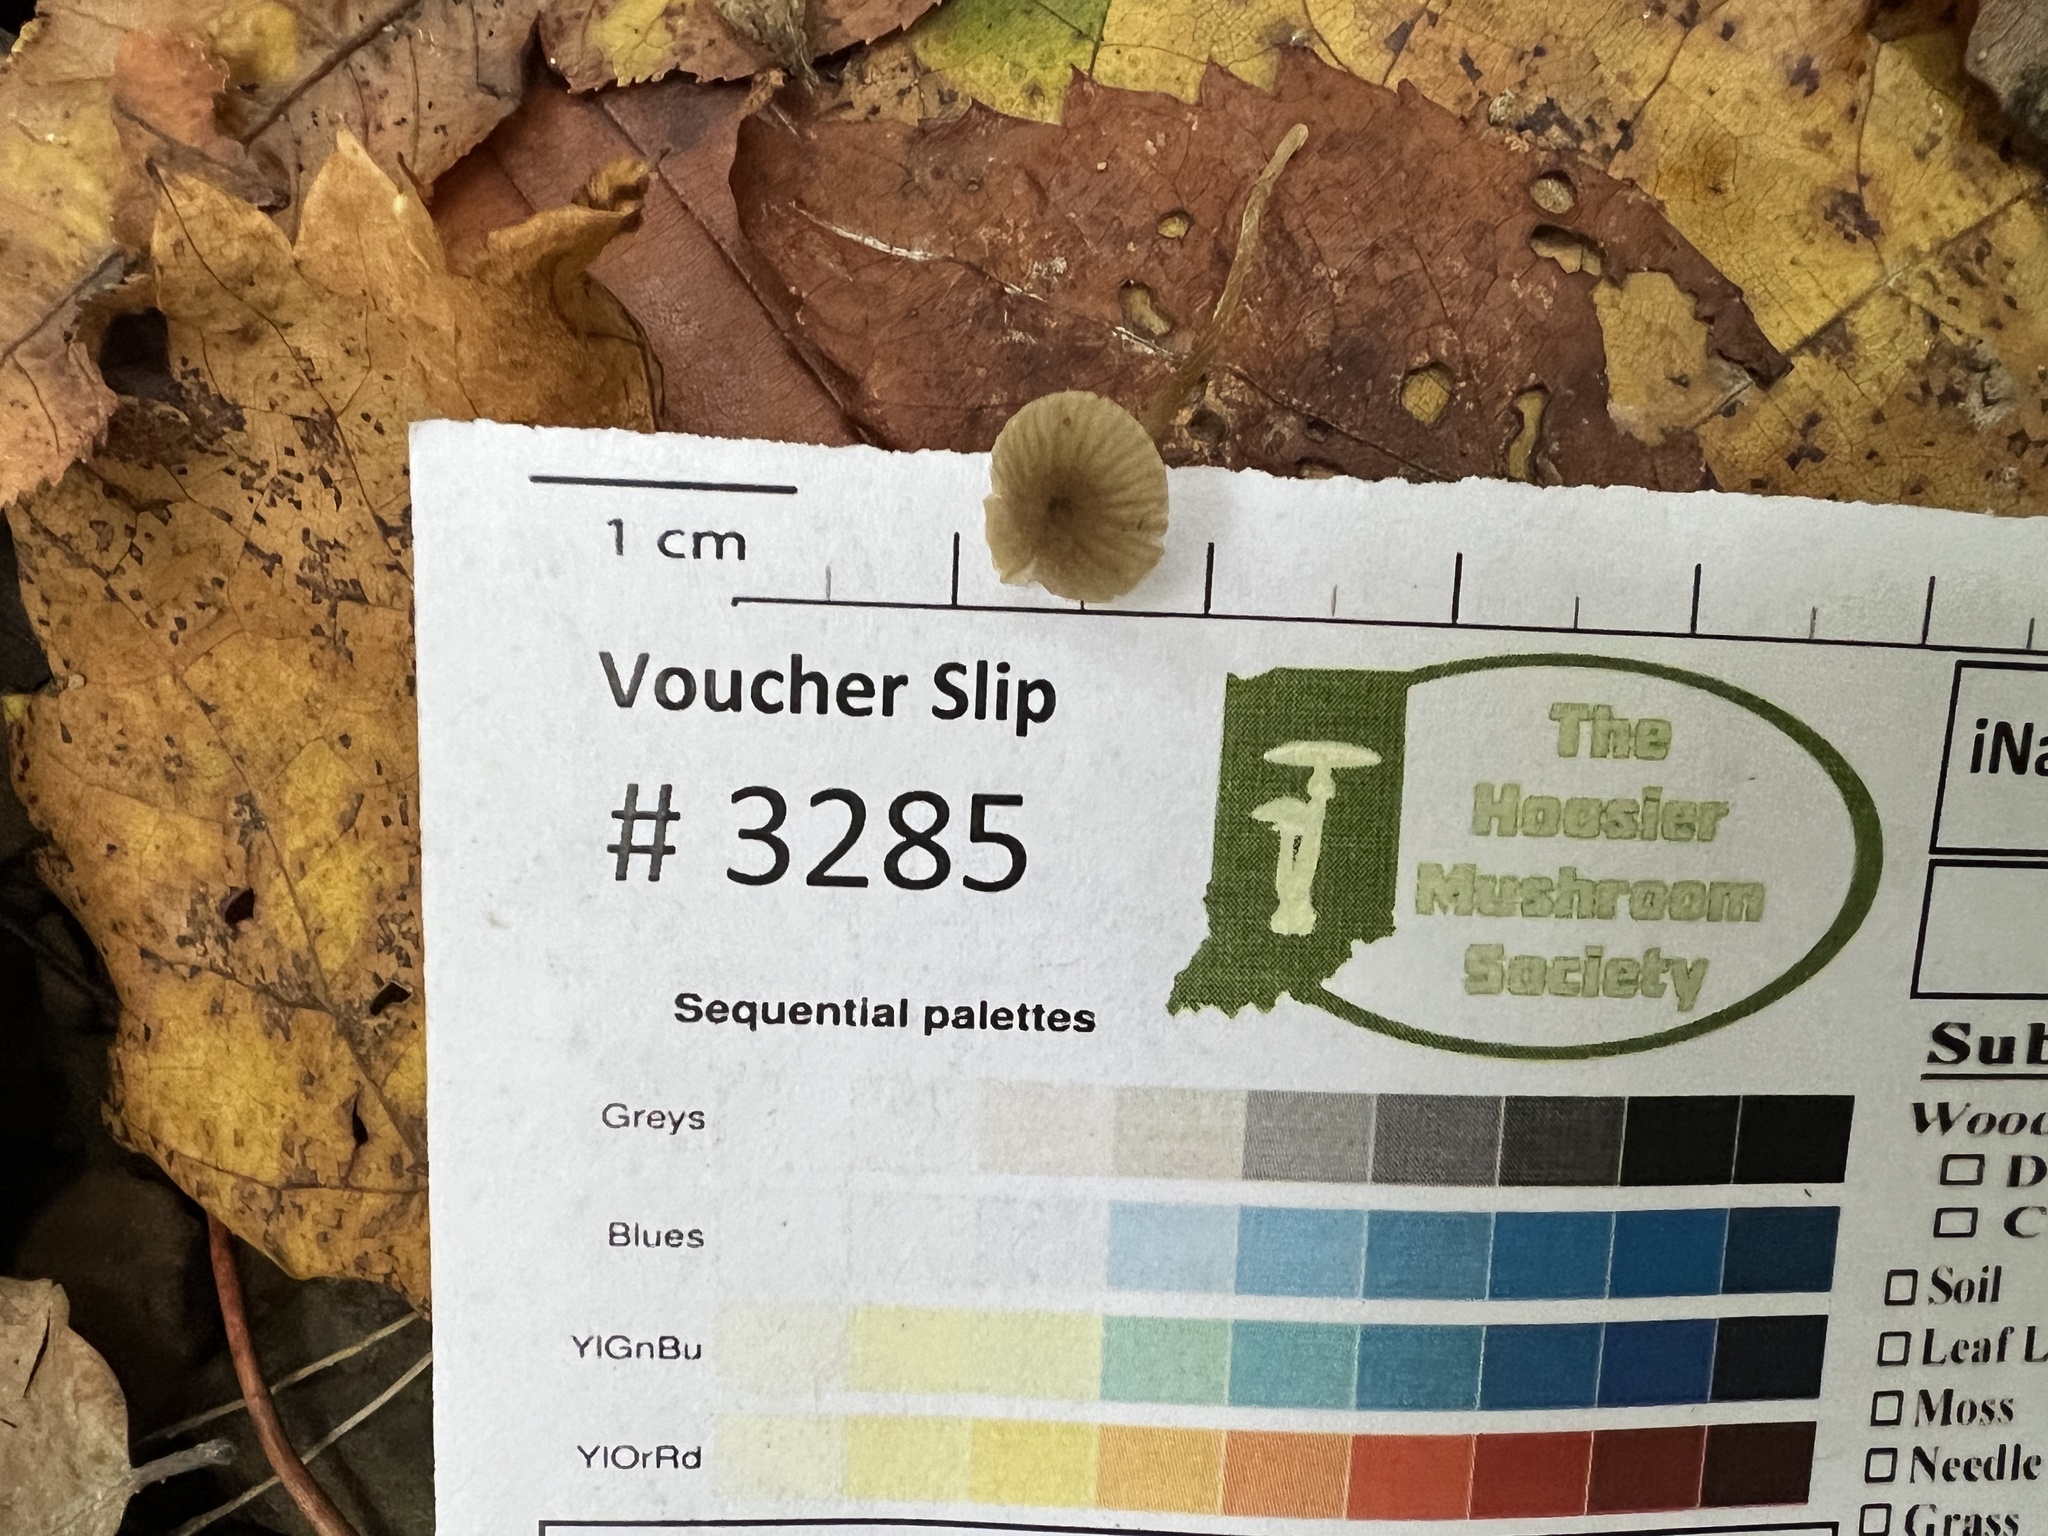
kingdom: Fungi
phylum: Basidiomycota
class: Agaricomycetes
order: Agaricales
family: Porotheleaceae
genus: Phloeomana
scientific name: Phloeomana speirea
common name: Bark bonnet
